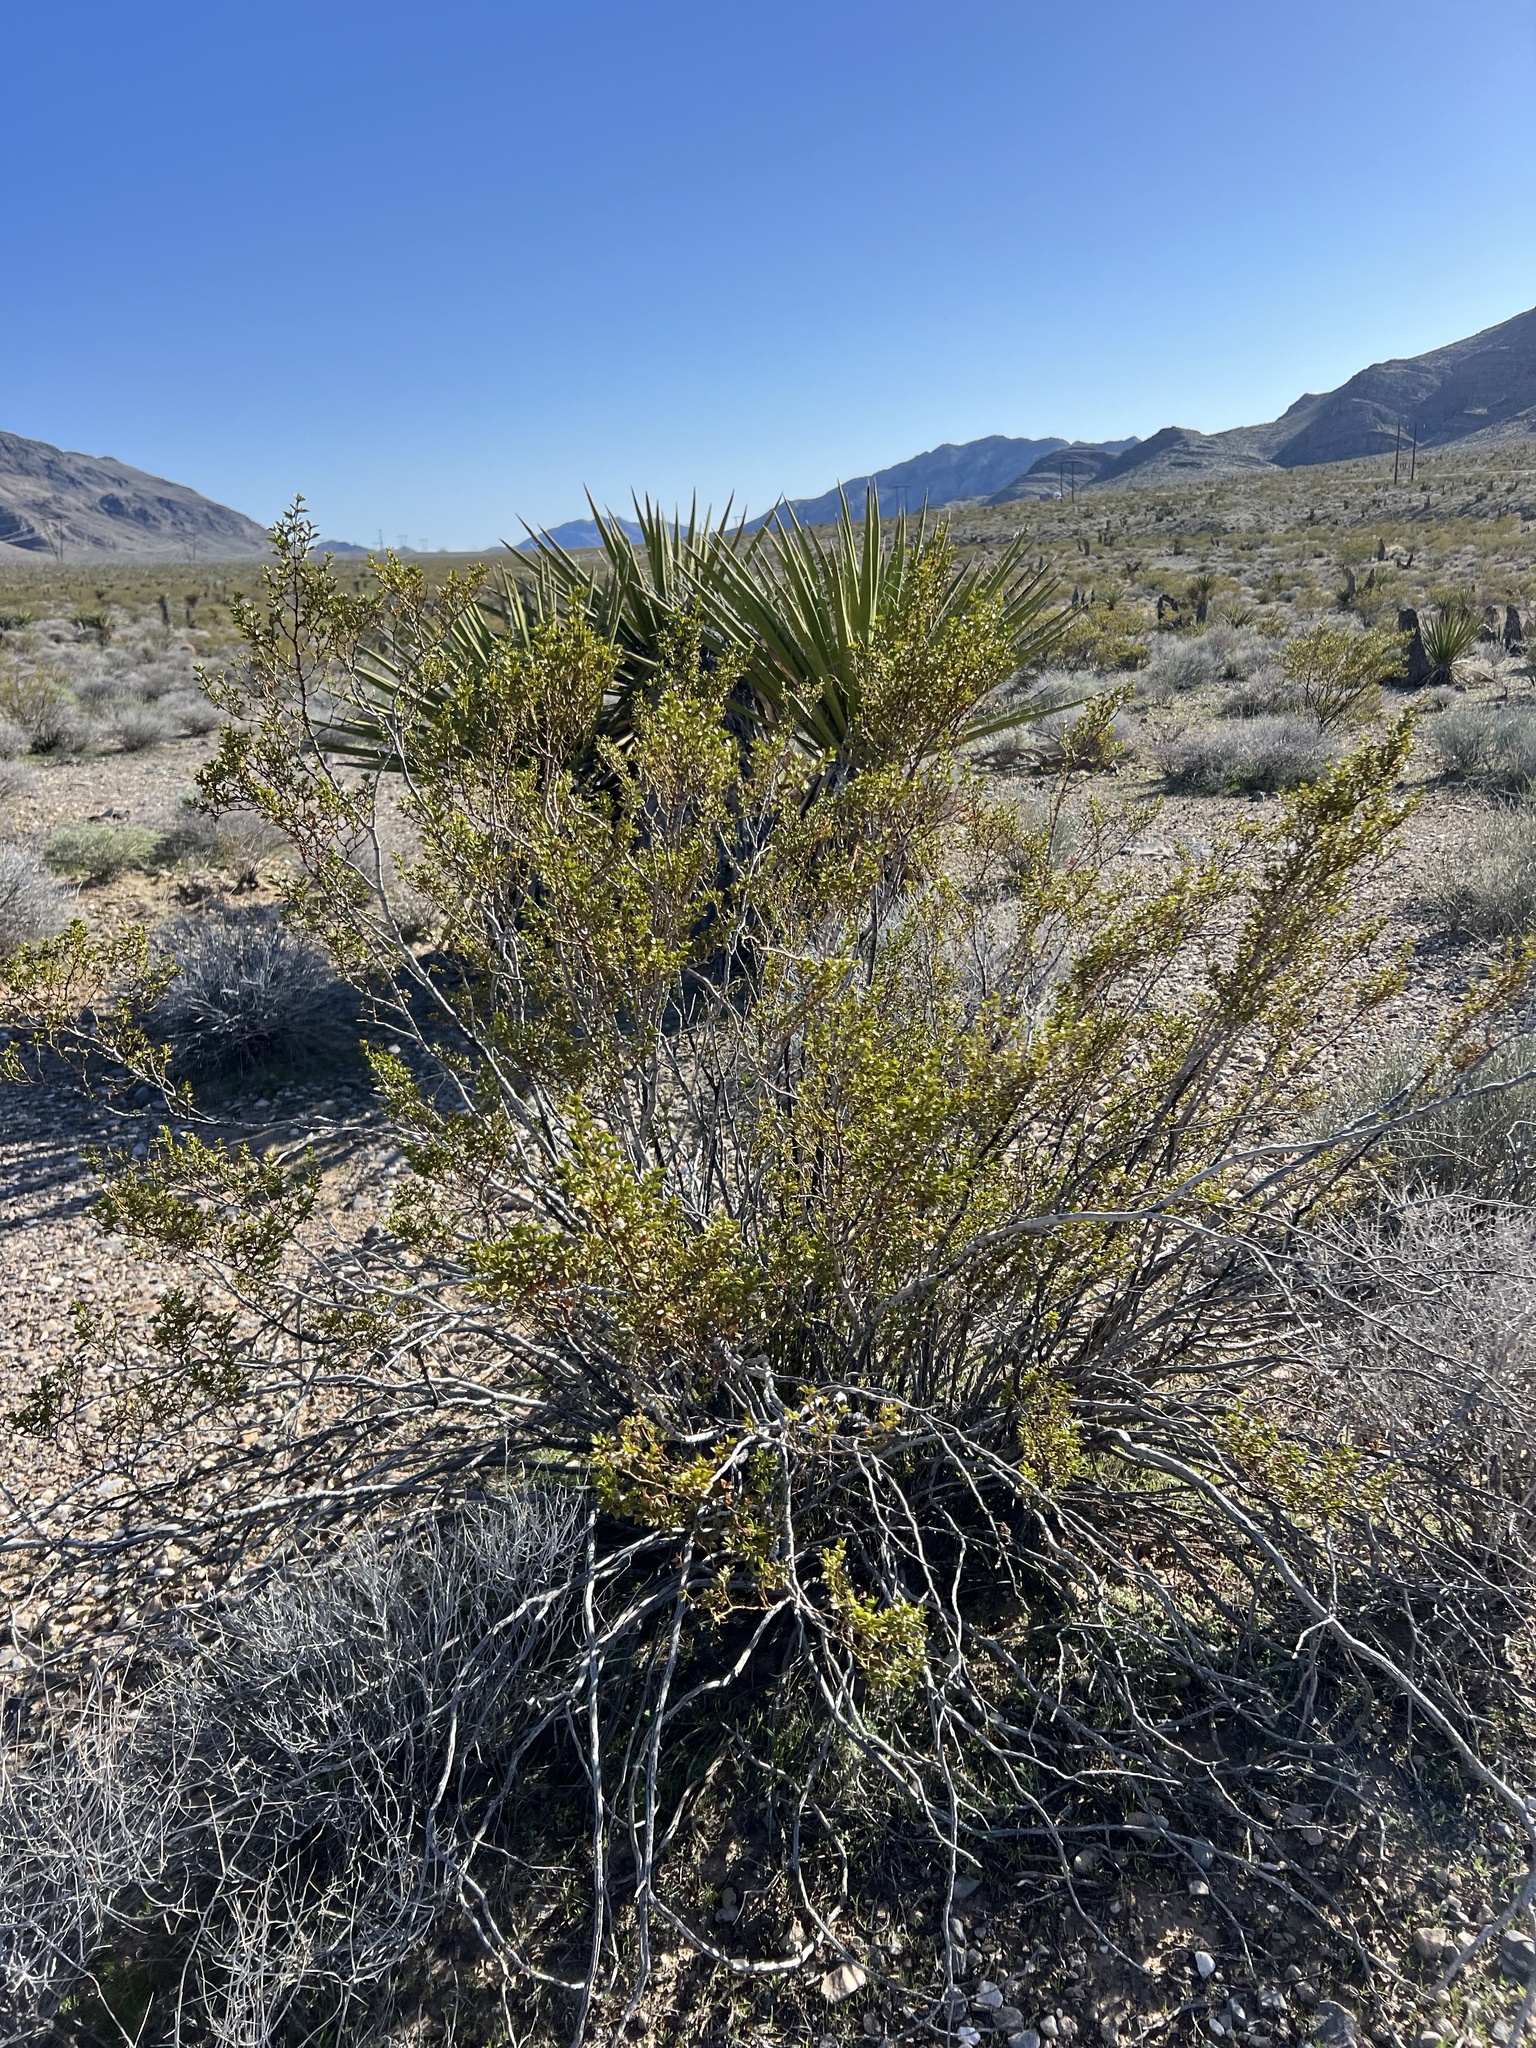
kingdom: Plantae
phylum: Tracheophyta
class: Magnoliopsida
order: Zygophyllales
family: Zygophyllaceae
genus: Larrea
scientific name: Larrea tridentata
